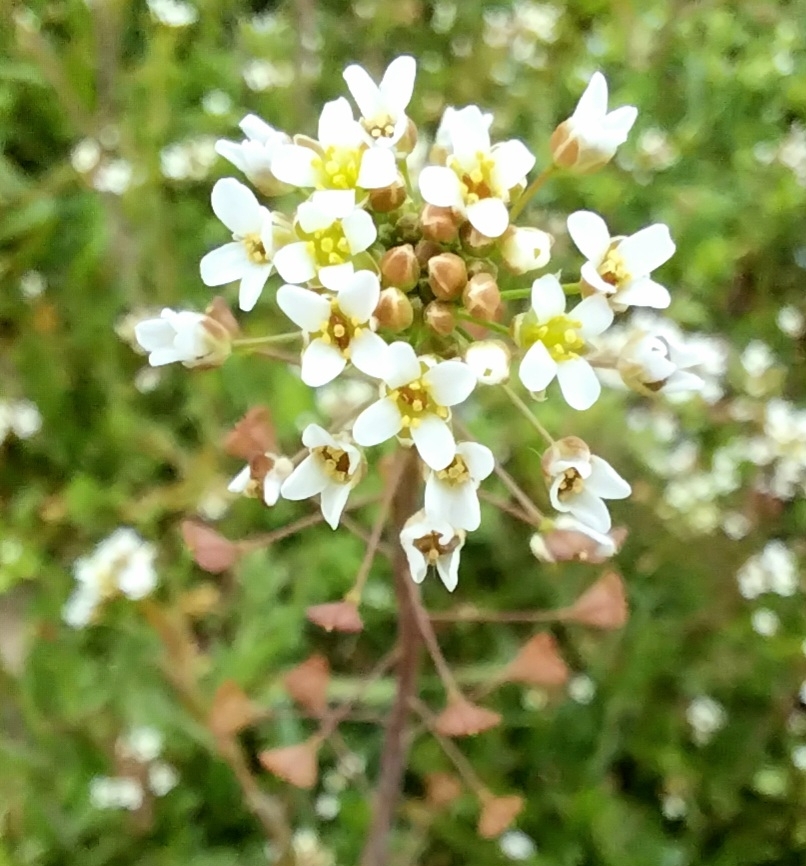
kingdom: Plantae
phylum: Tracheophyta
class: Magnoliopsida
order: Brassicales
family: Brassicaceae
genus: Capsella
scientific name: Capsella bursa-pastoris
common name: Shepherd's purse
